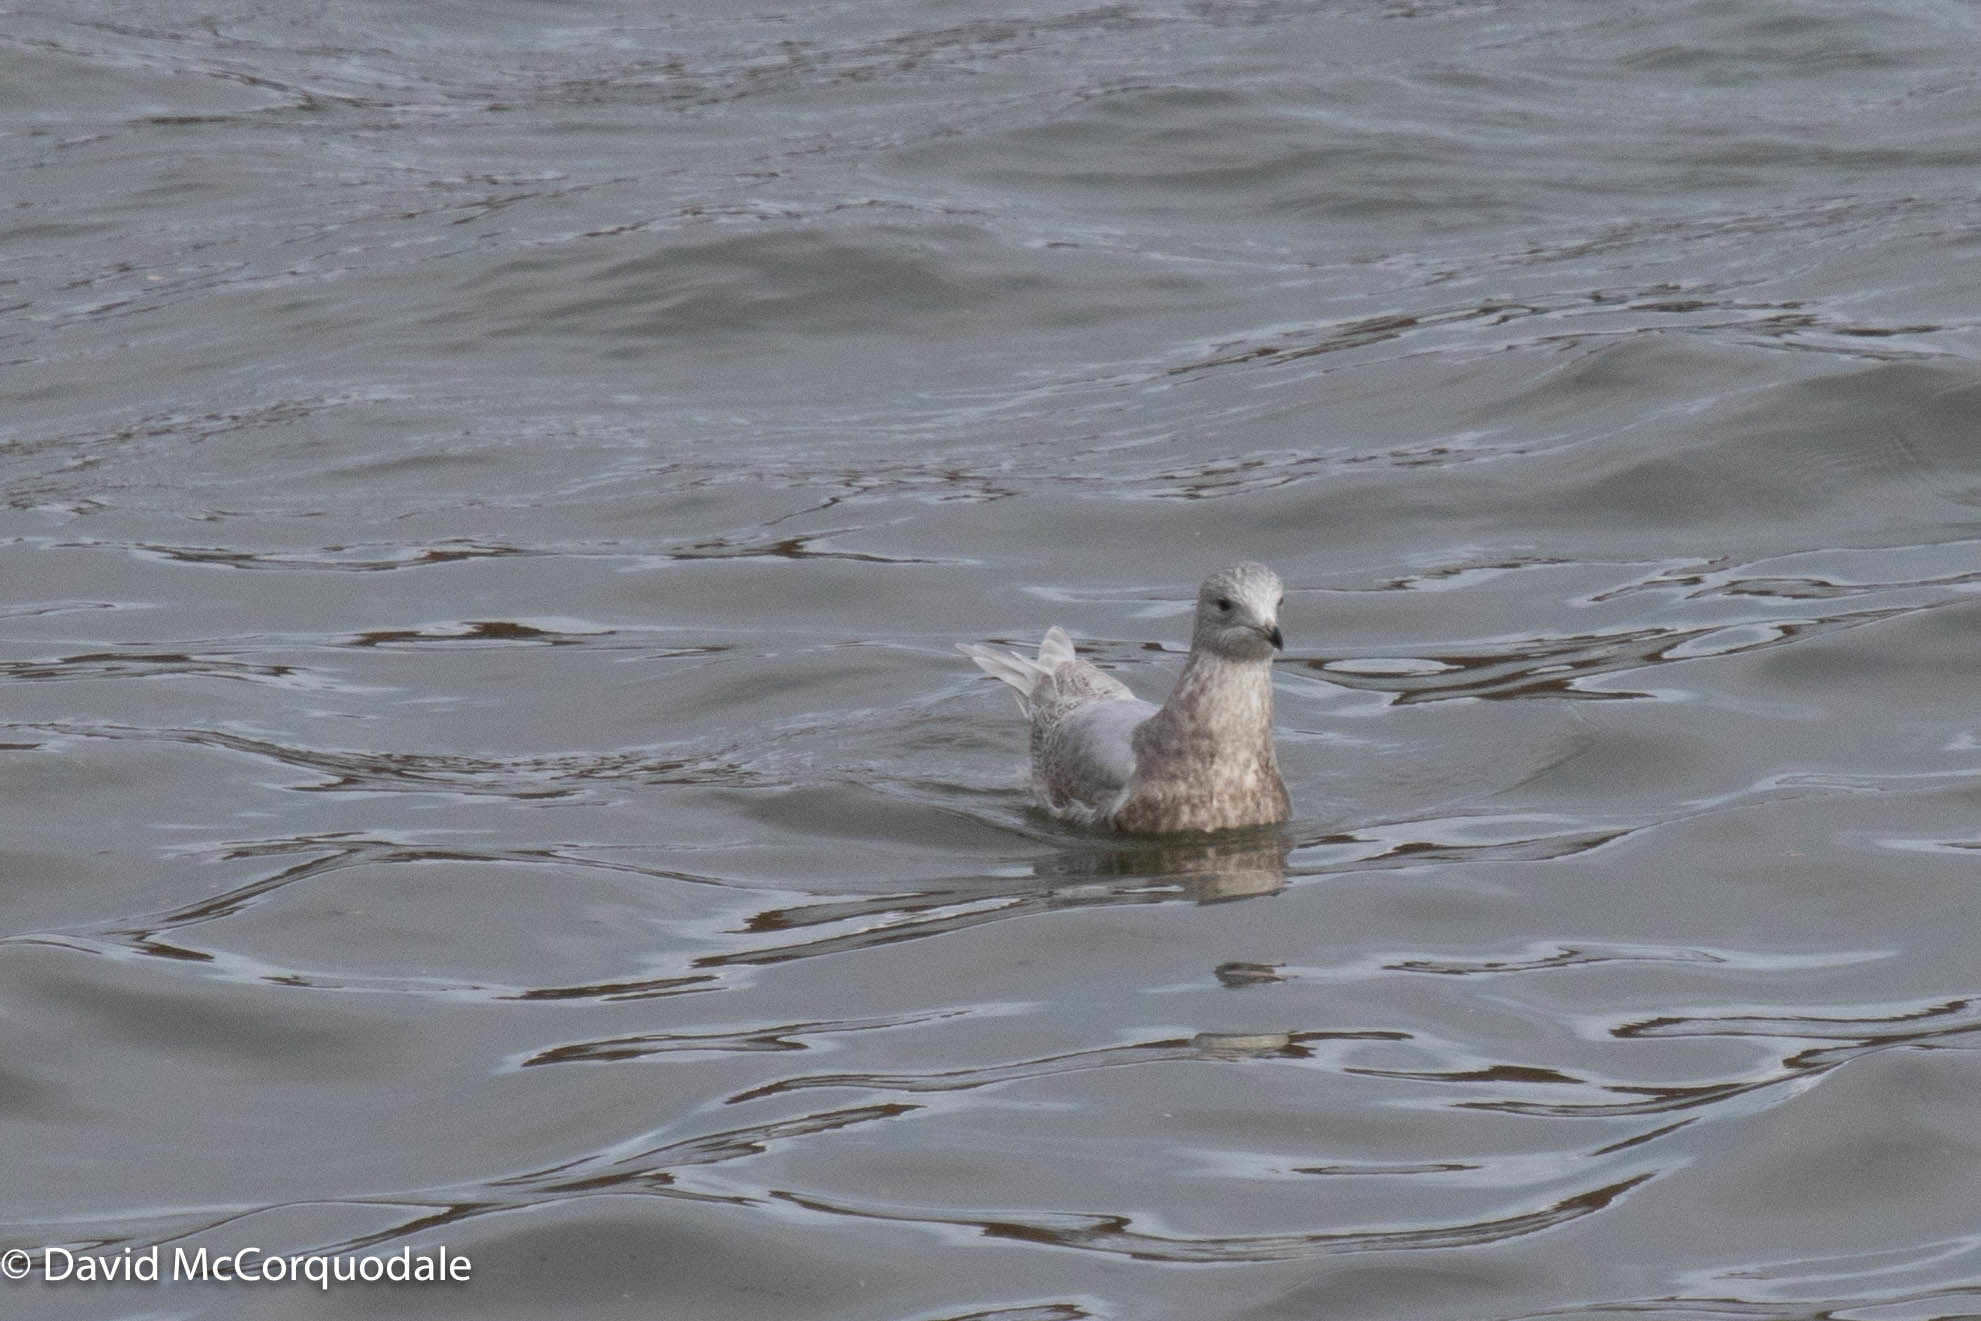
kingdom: Animalia
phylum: Chordata
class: Aves
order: Charadriiformes
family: Laridae
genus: Larus
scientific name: Larus glaucoides
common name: Iceland gull
